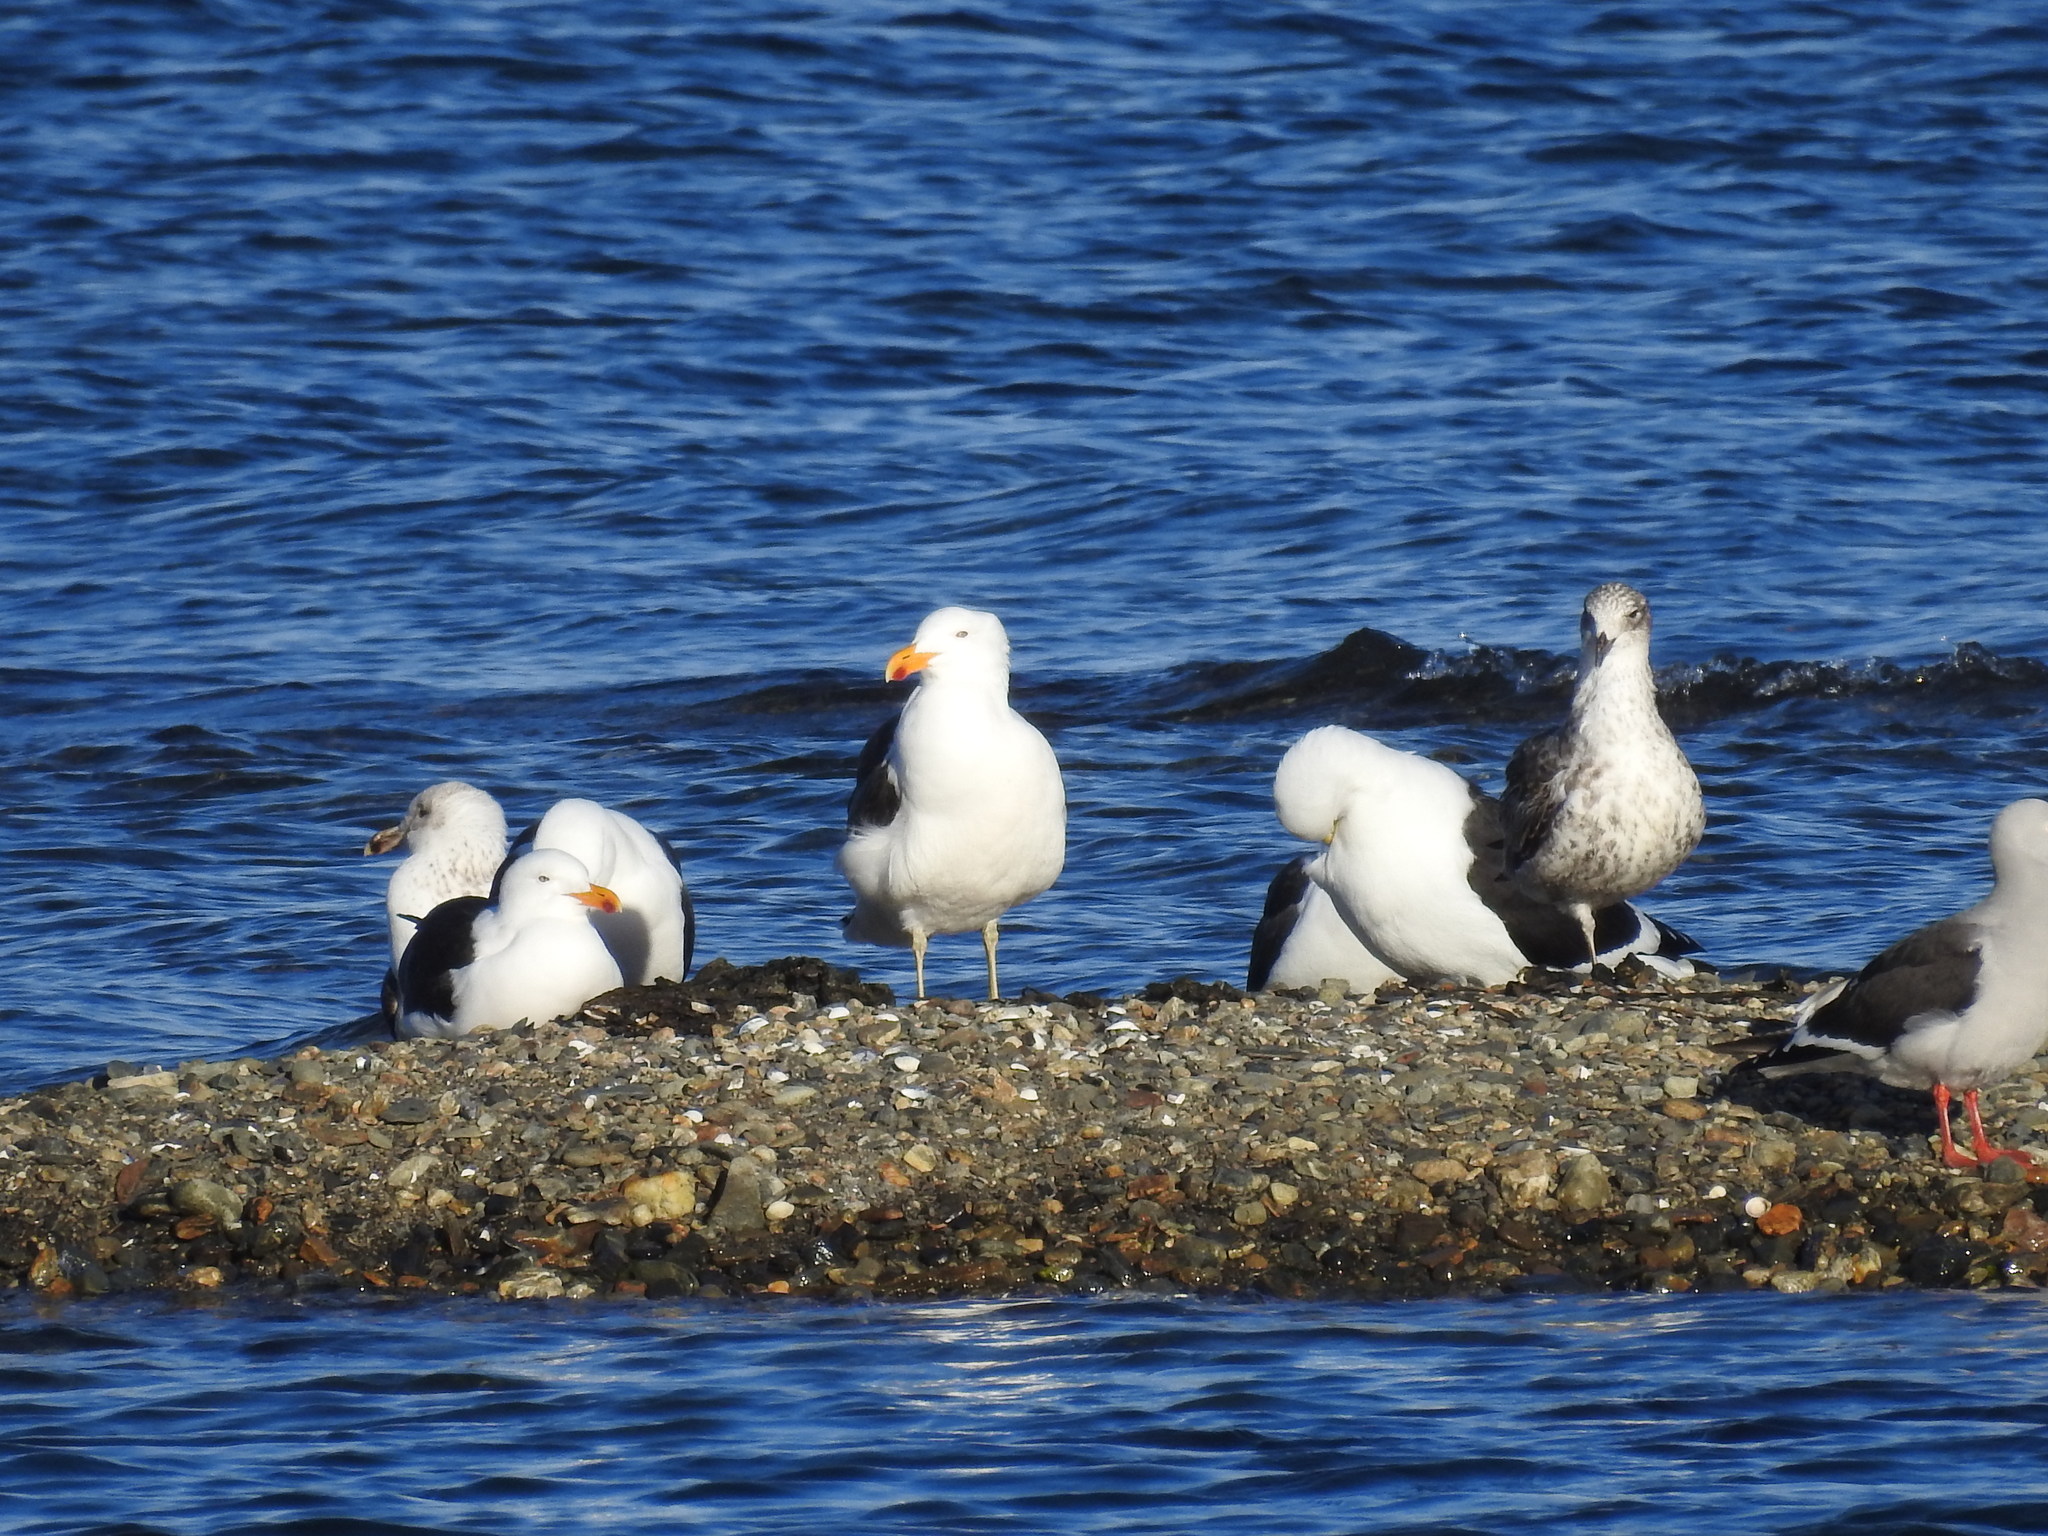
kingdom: Animalia
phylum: Chordata
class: Aves
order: Charadriiformes
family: Laridae
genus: Larus
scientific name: Larus dominicanus
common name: Kelp gull
